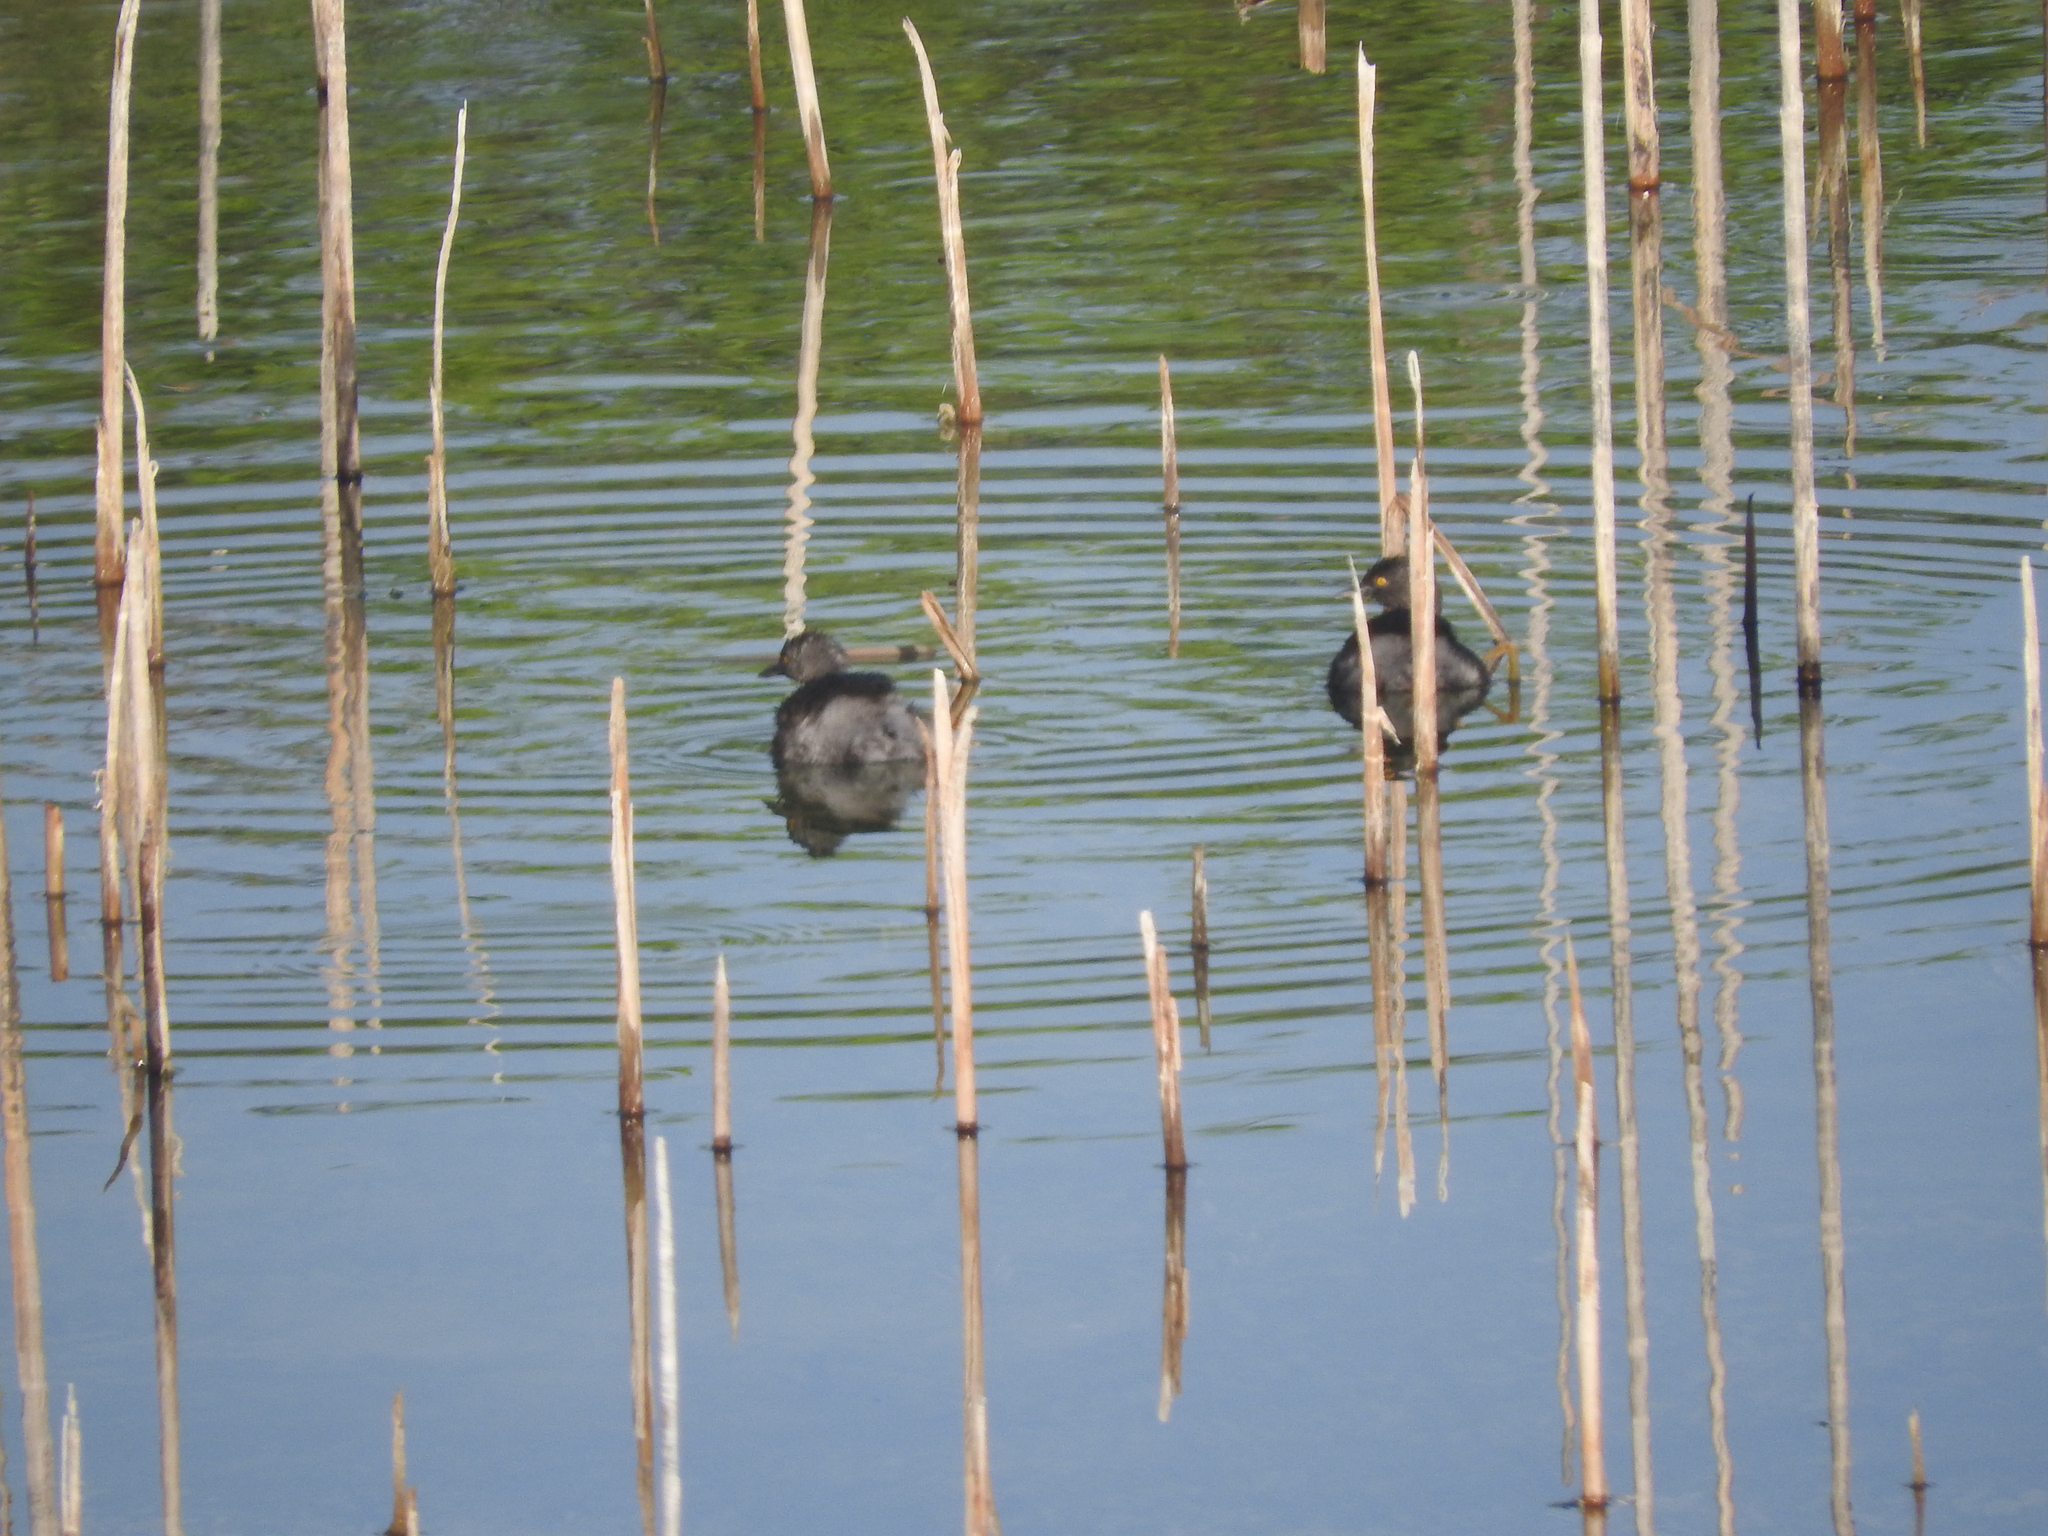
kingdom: Animalia
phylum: Chordata
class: Aves
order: Podicipediformes
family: Podicipedidae
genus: Tachybaptus
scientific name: Tachybaptus dominicus
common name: Least grebe
